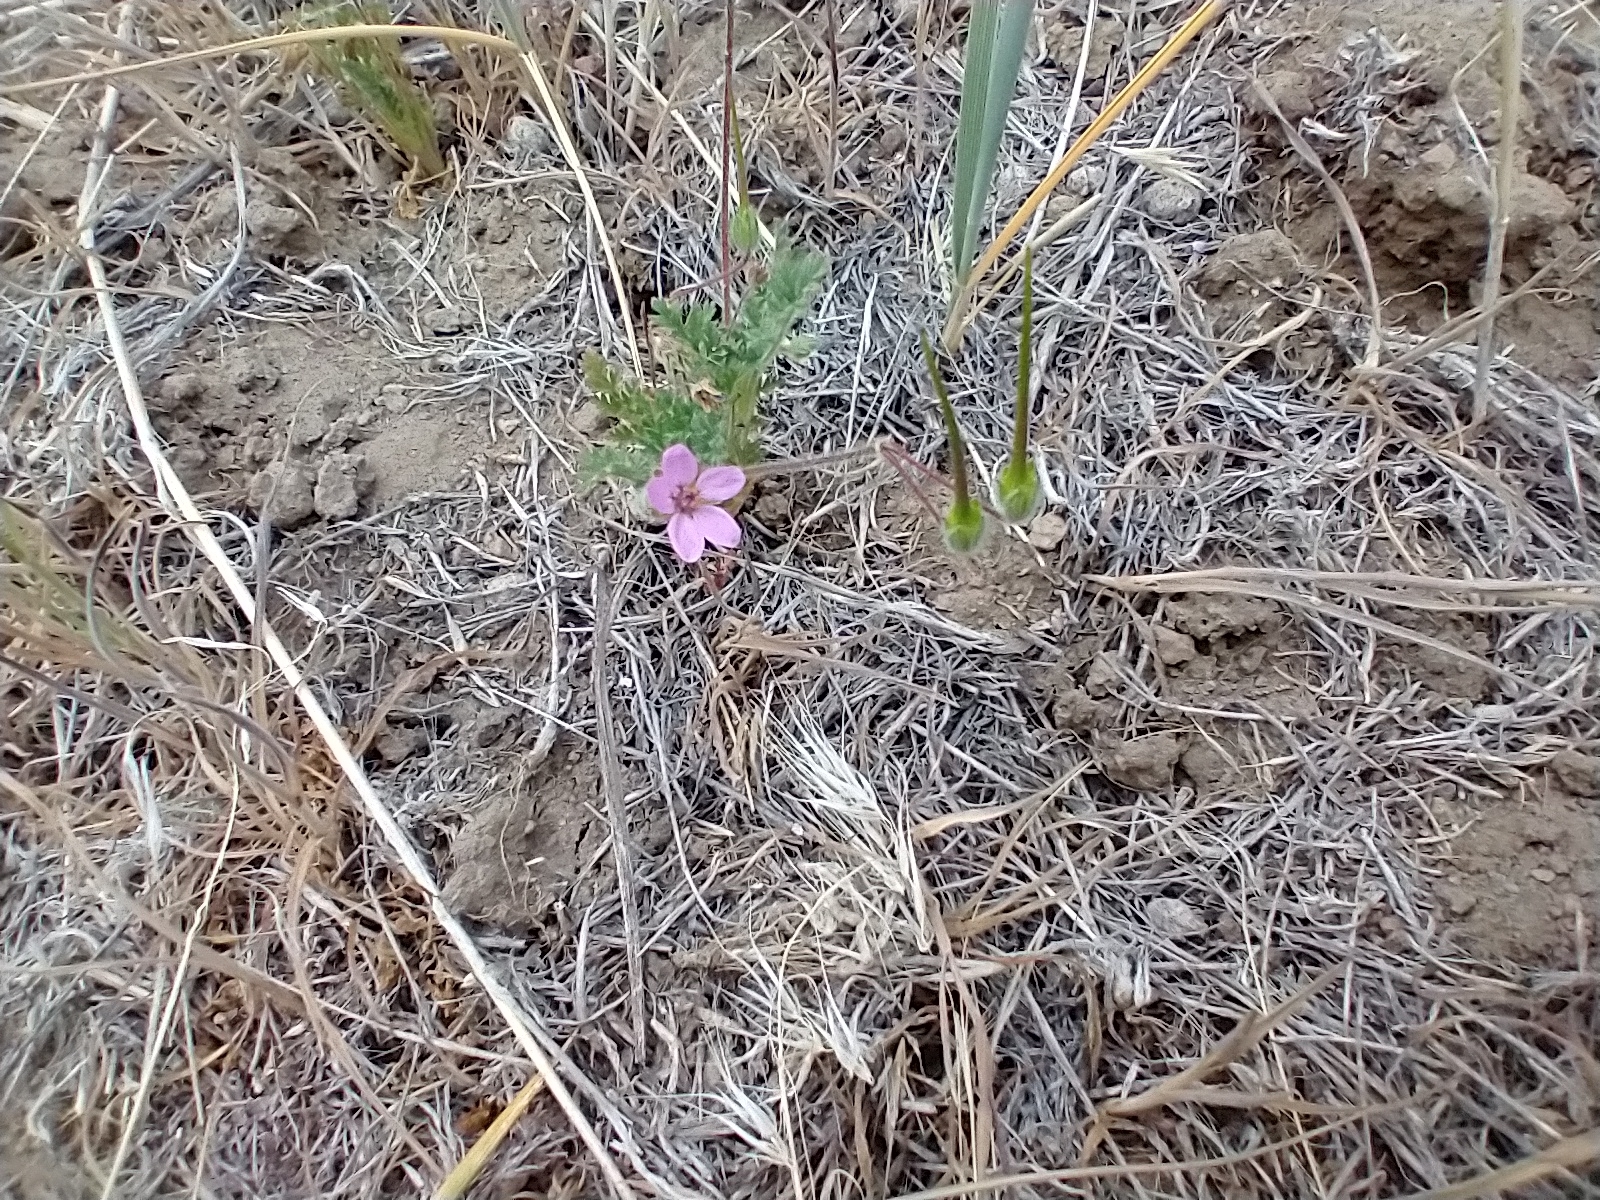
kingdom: Plantae
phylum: Tracheophyta
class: Magnoliopsida
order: Geraniales
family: Geraniaceae
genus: Erodium
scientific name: Erodium cicutarium
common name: Common stork's-bill
